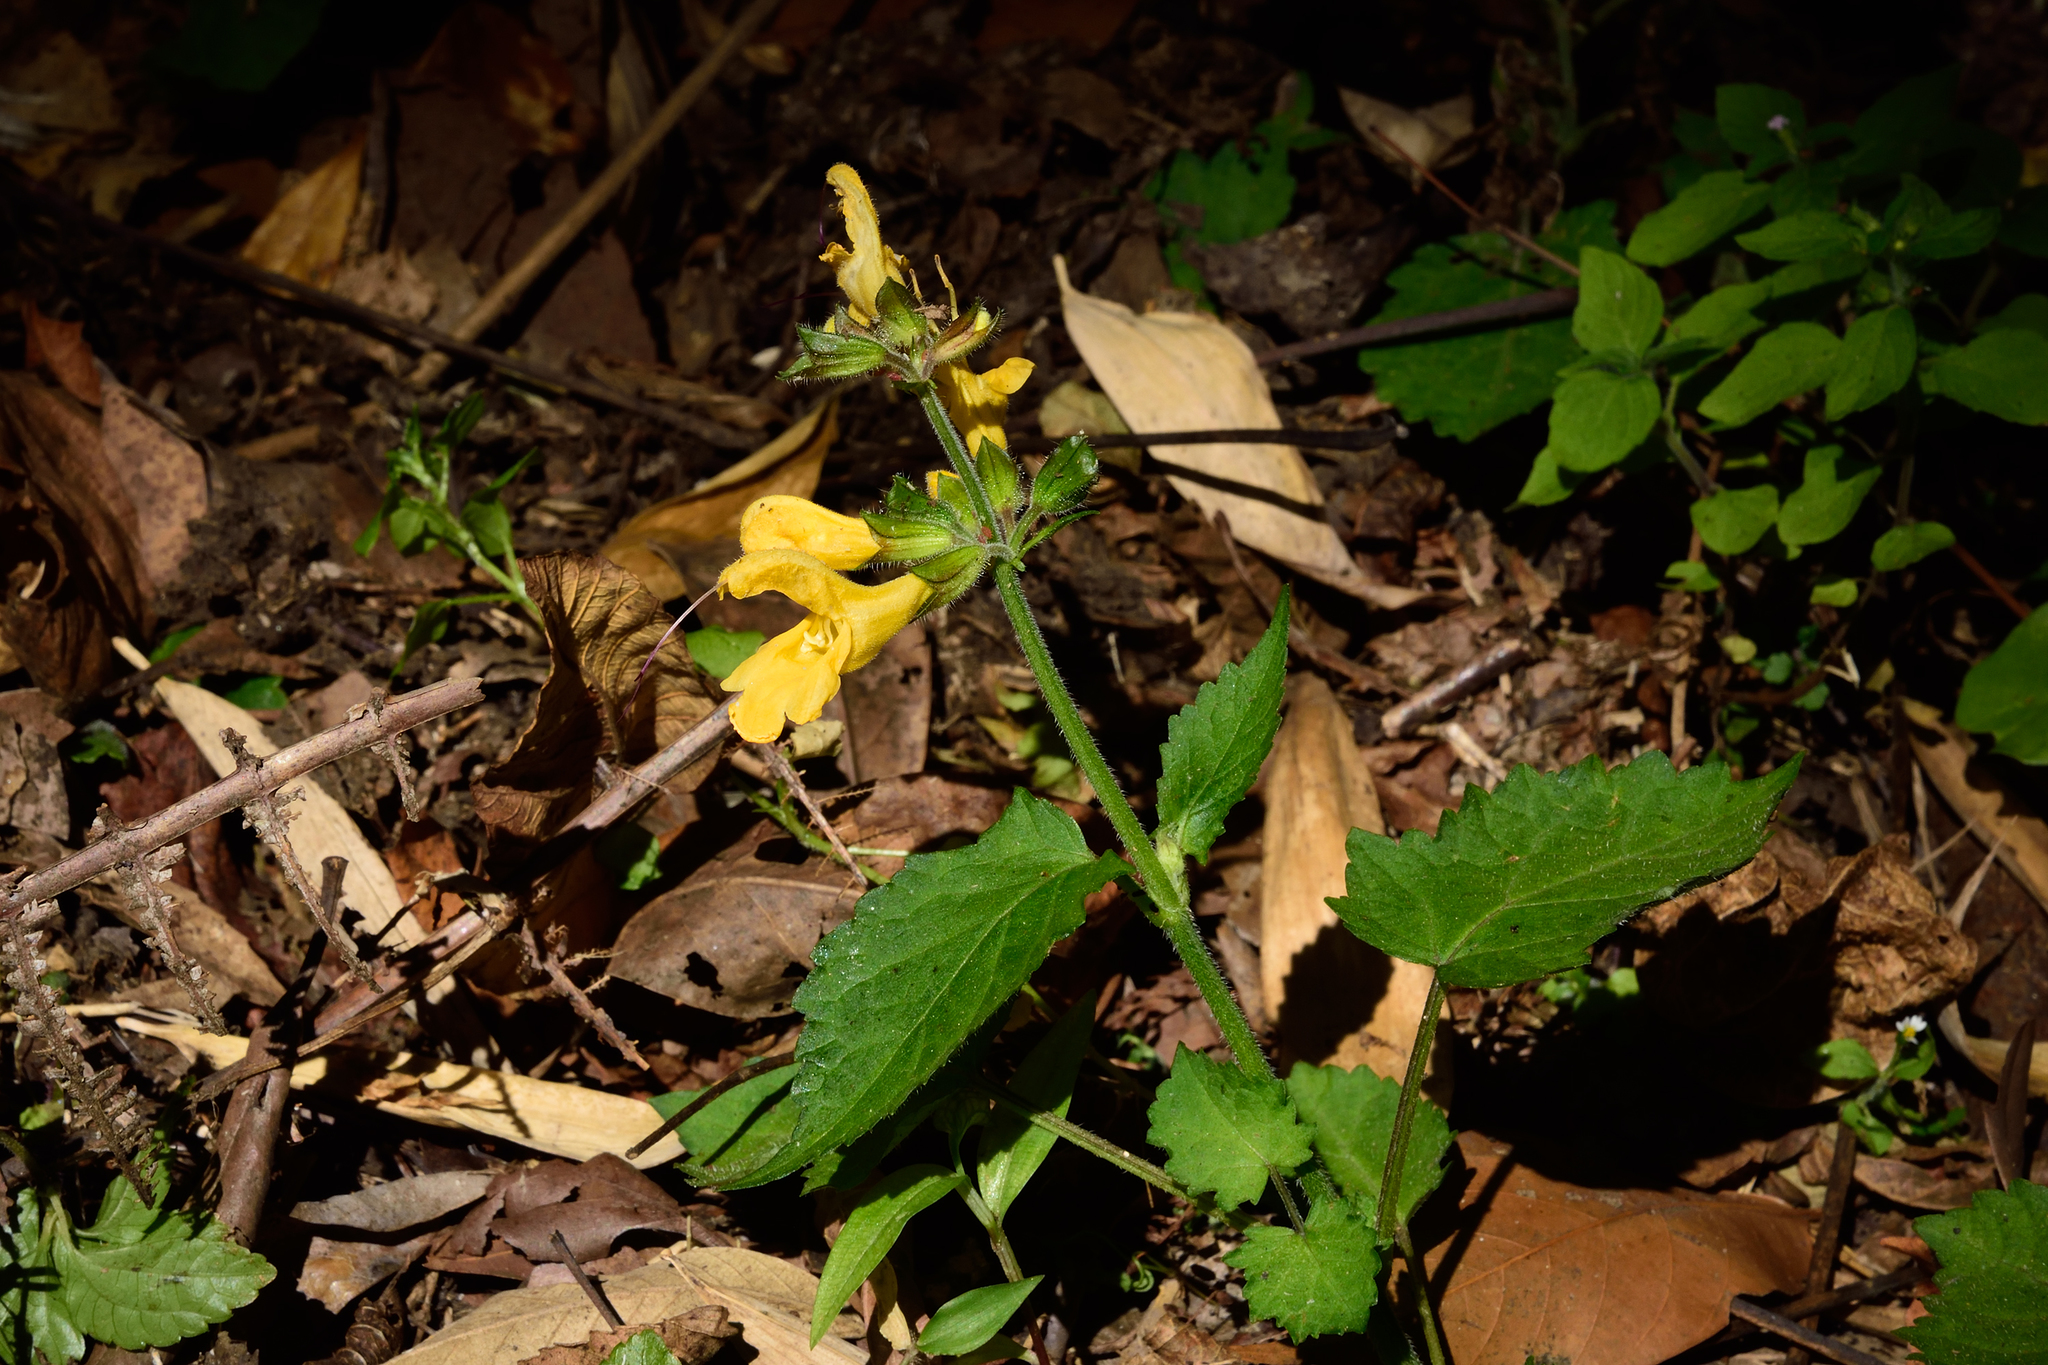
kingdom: Plantae
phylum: Tracheophyta
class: Magnoliopsida
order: Lamiales
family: Lamiaceae
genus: Salvia
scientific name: Salvia japonica
